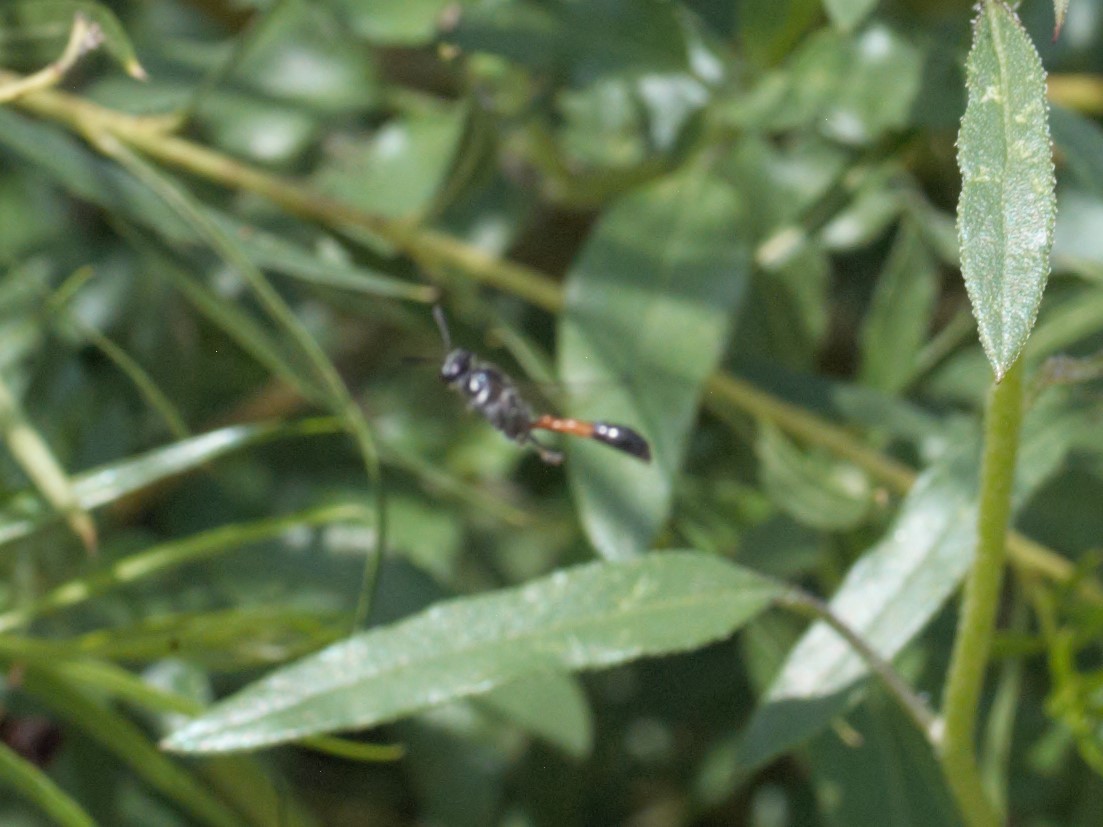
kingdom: Animalia
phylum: Arthropoda
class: Insecta
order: Hymenoptera
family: Crabronidae
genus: Trypoxylon
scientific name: Trypoxylon californicum
